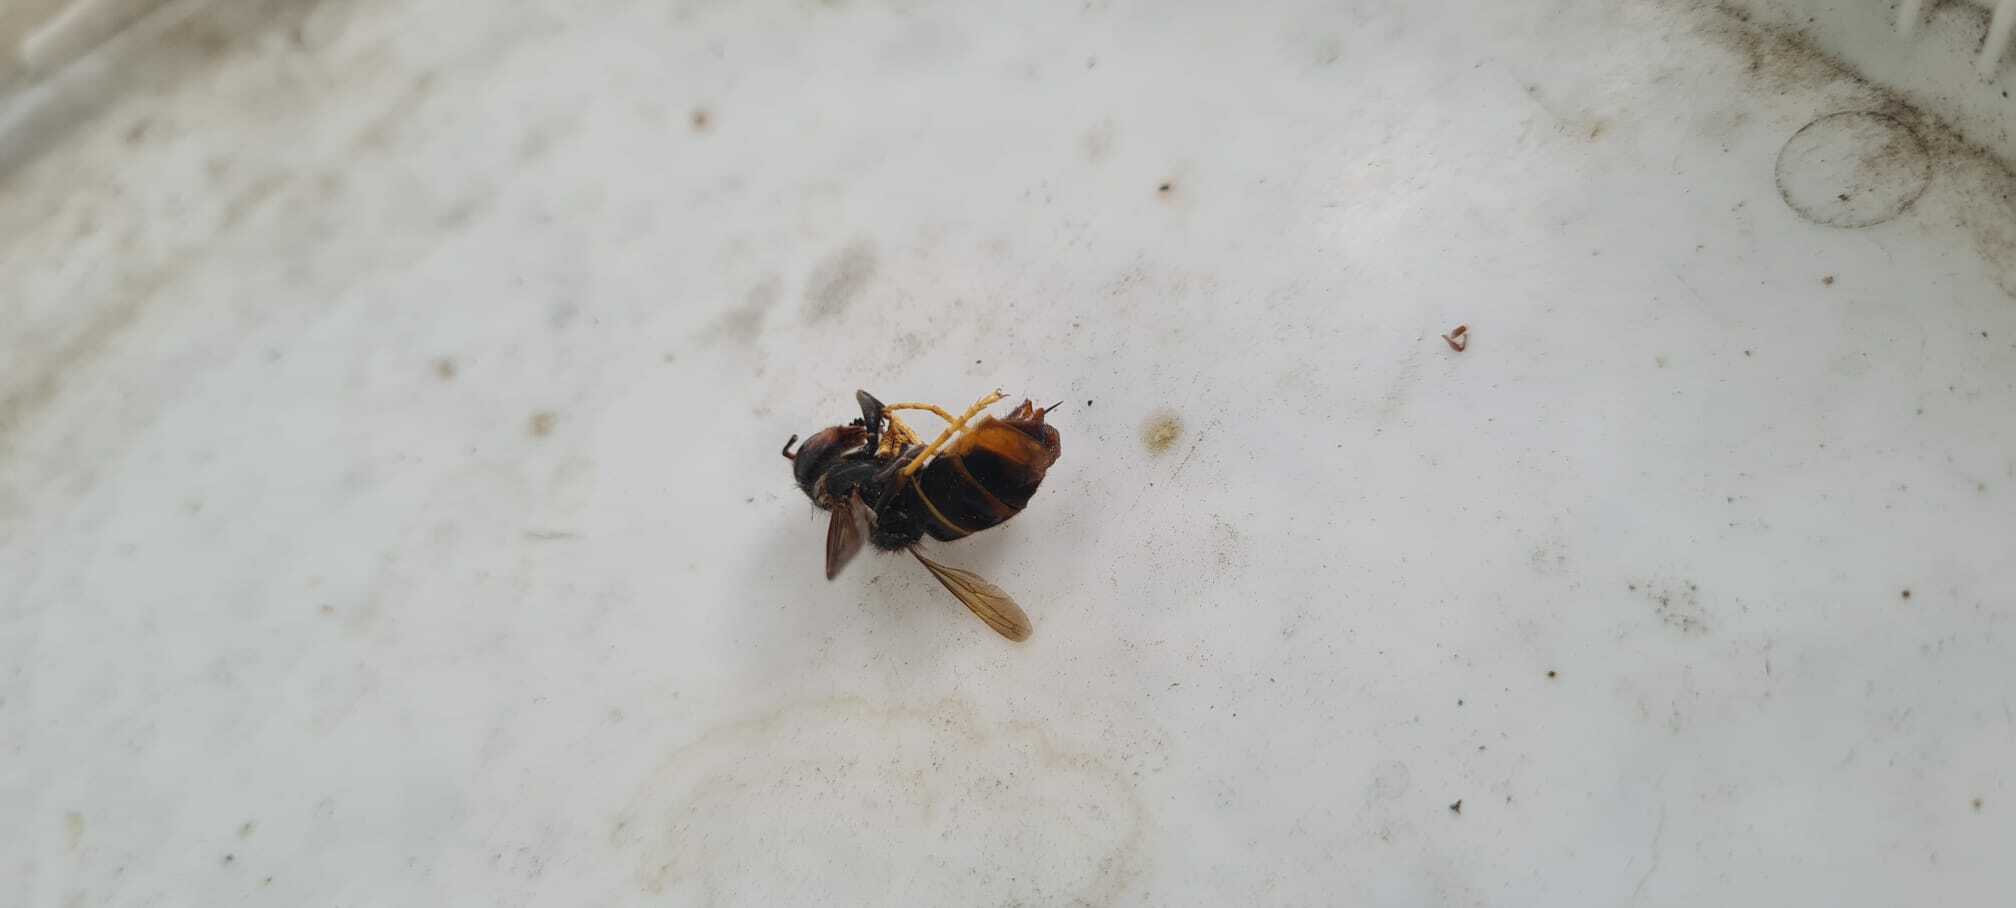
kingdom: Animalia
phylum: Arthropoda
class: Insecta
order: Hymenoptera
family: Vespidae
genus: Vespa
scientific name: Vespa velutina
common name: Asian hornet
